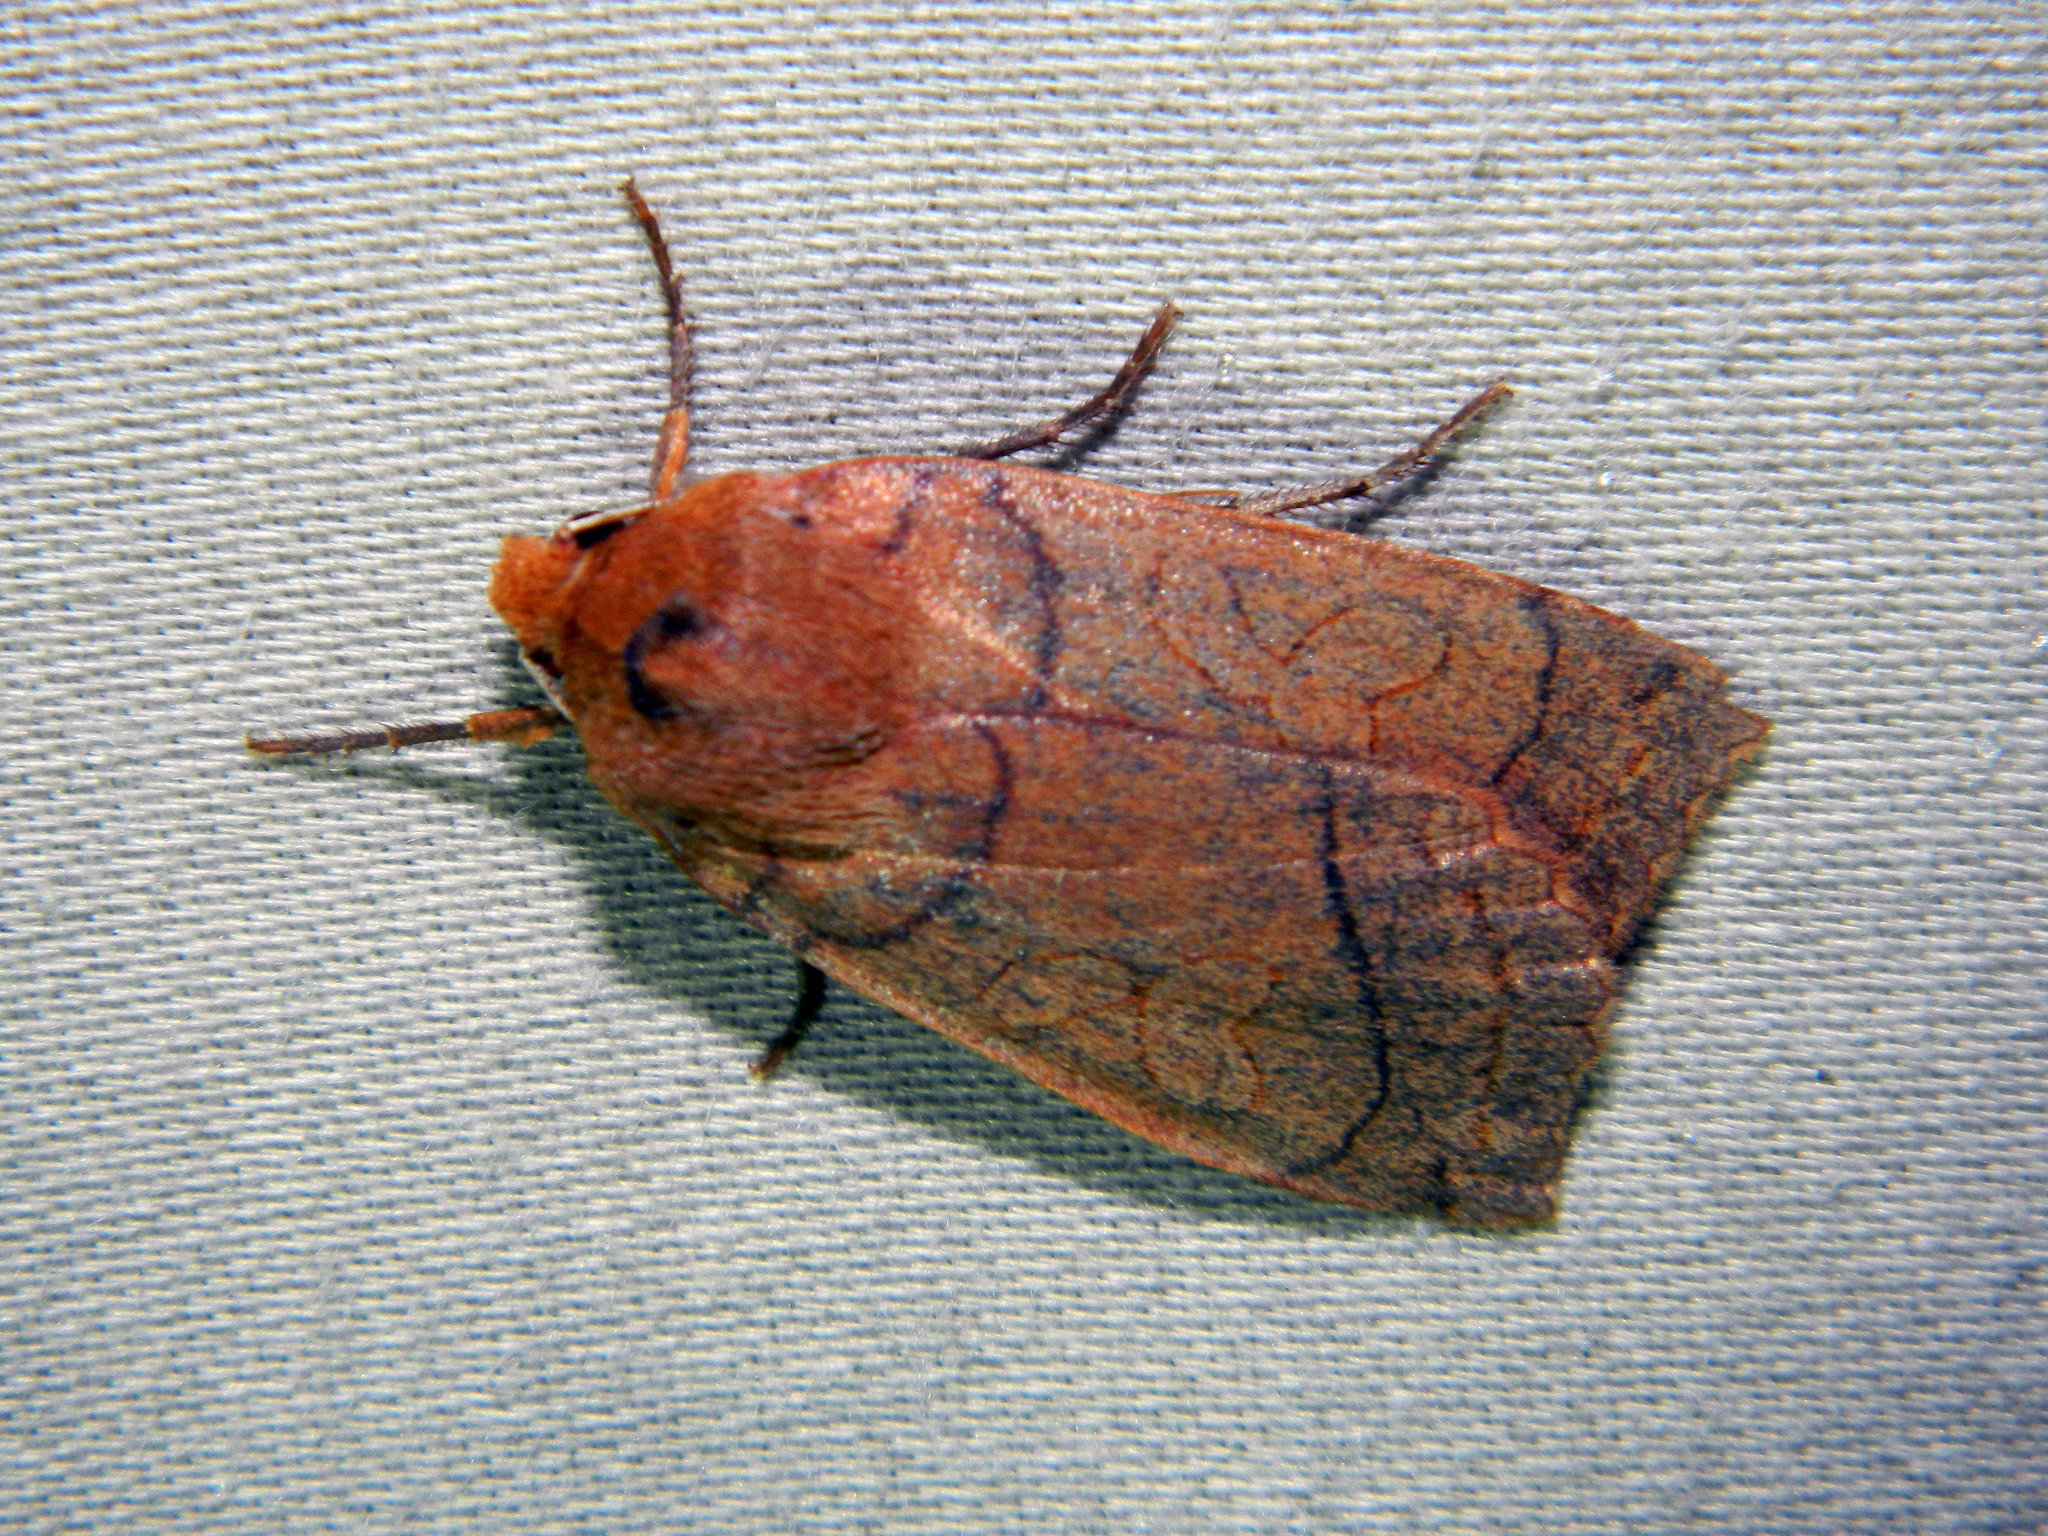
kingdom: Animalia
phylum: Arthropoda
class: Insecta
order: Lepidoptera
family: Noctuidae
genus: Metaxaglaea
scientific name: Metaxaglaea inulta
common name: Unsated sallow
